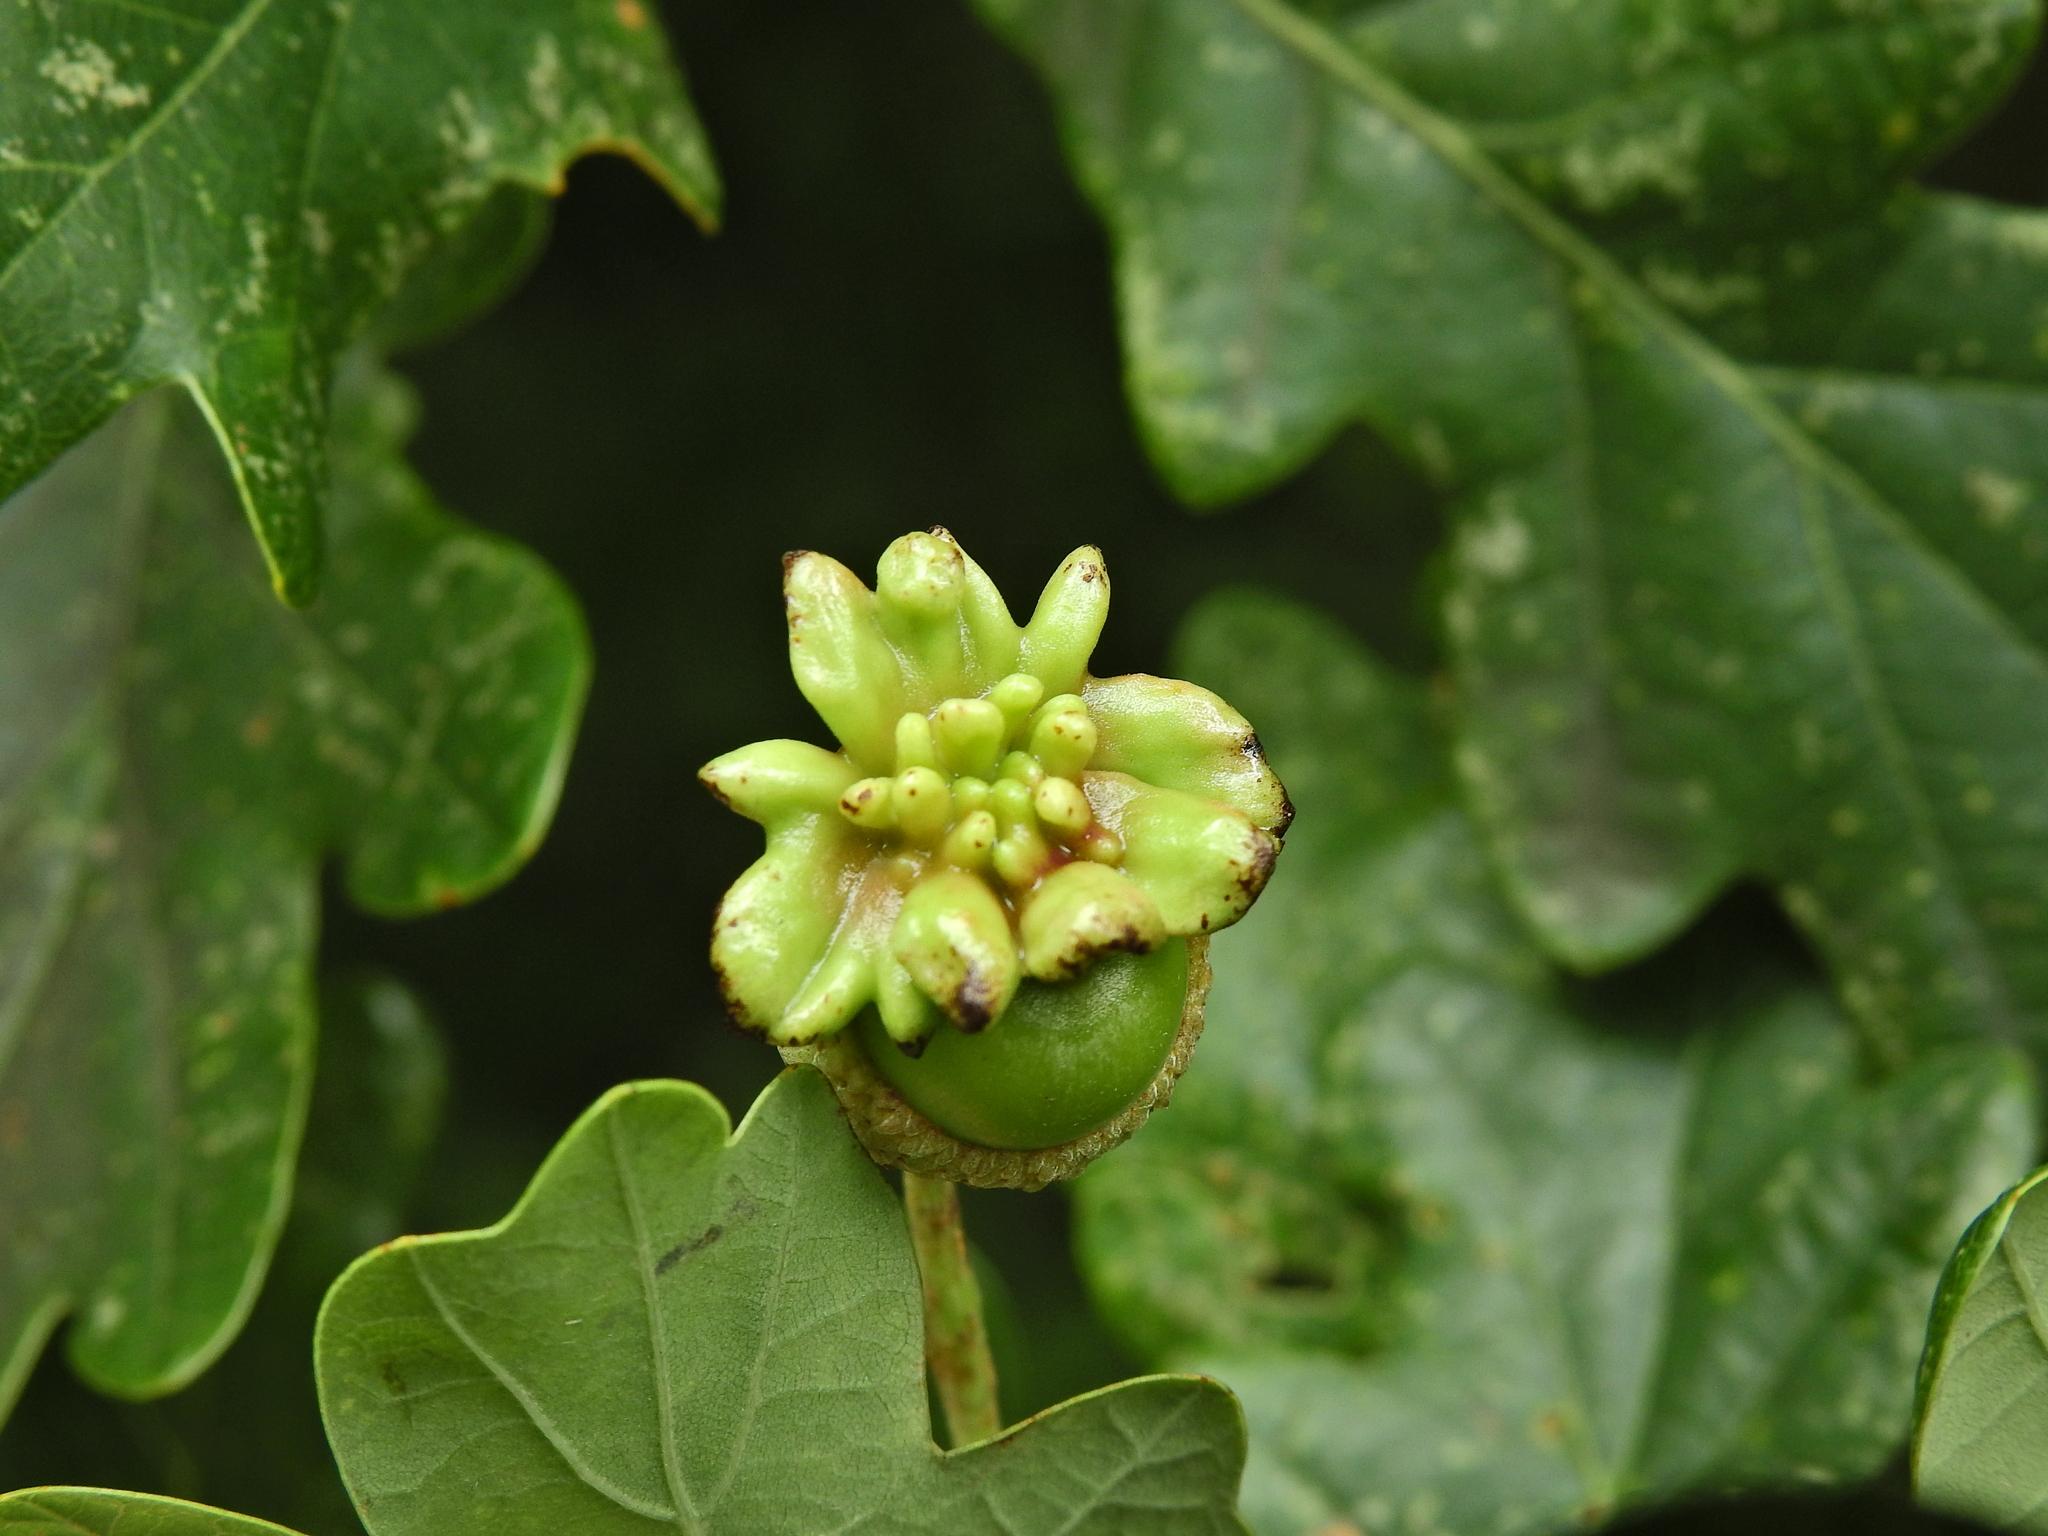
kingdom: Animalia
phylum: Arthropoda
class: Insecta
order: Hymenoptera
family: Cynipidae
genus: Andricus
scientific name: Andricus quercuscalicis
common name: Knopper gall
